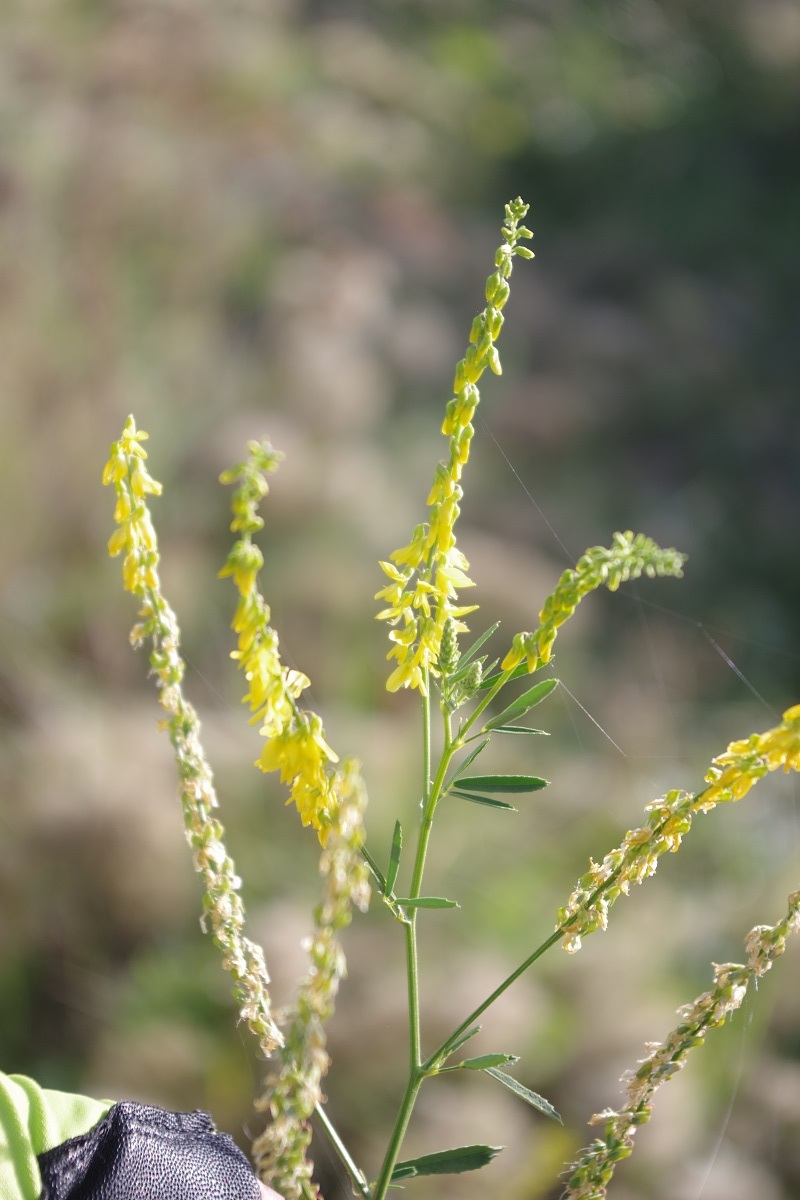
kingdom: Plantae
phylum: Tracheophyta
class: Magnoliopsida
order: Fabales
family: Fabaceae
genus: Melilotus
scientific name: Melilotus officinalis
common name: Sweetclover
